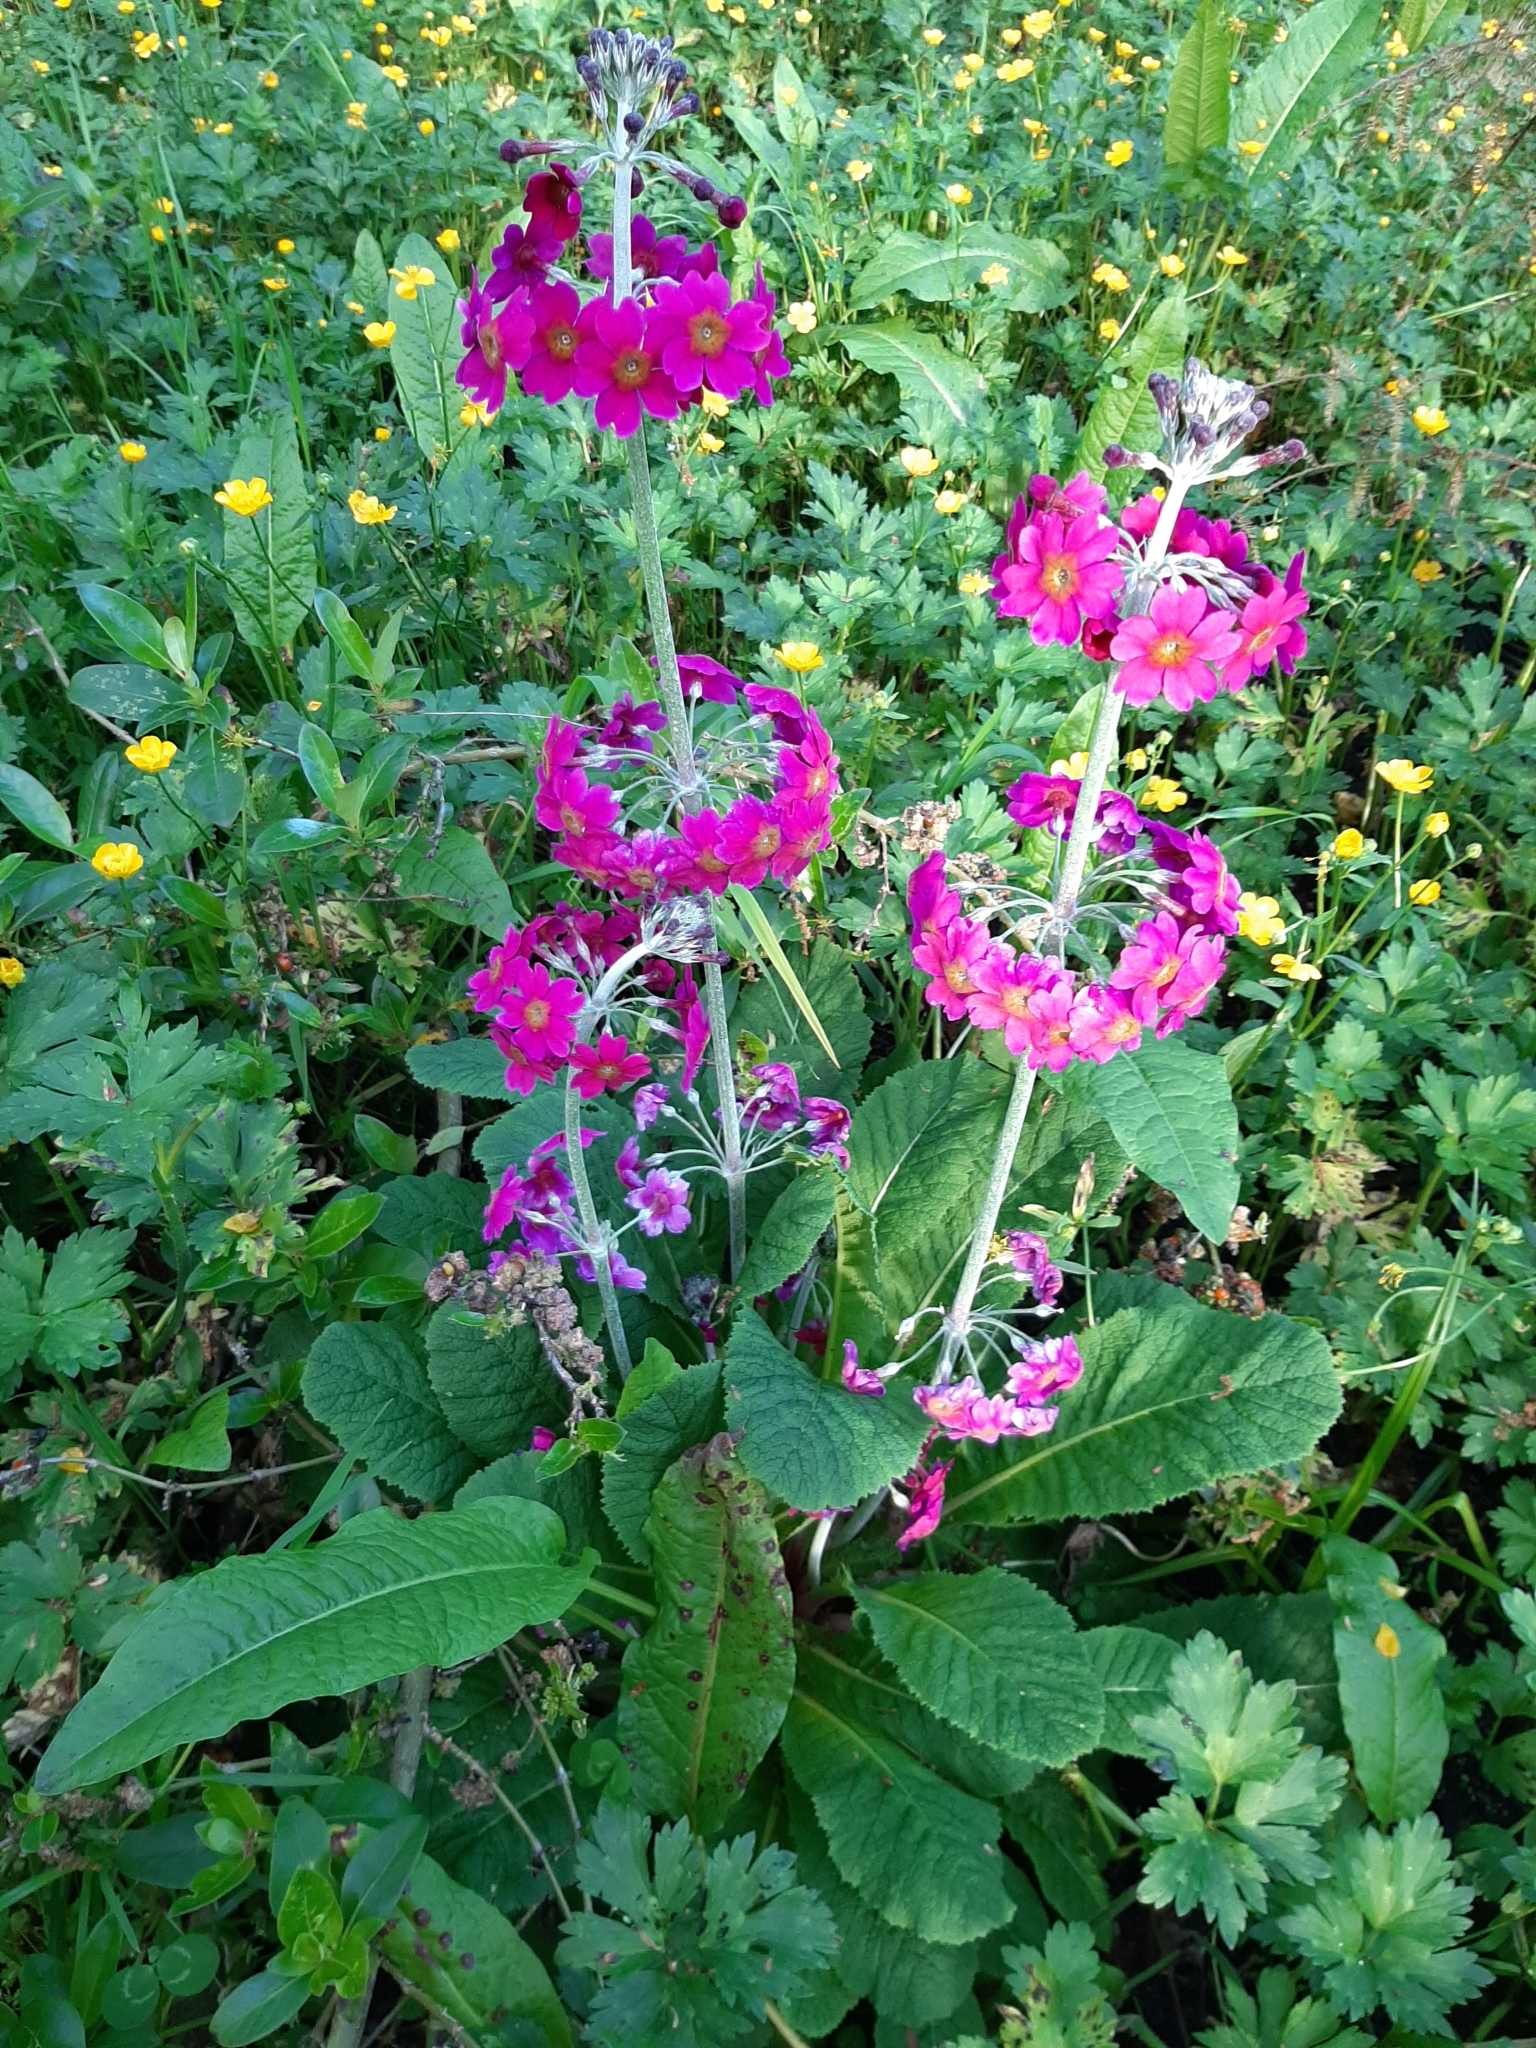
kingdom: Plantae
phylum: Tracheophyta
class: Magnoliopsida
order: Ericales
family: Primulaceae
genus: Primula
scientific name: Primula pulverulenta
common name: Mealy cowslip
